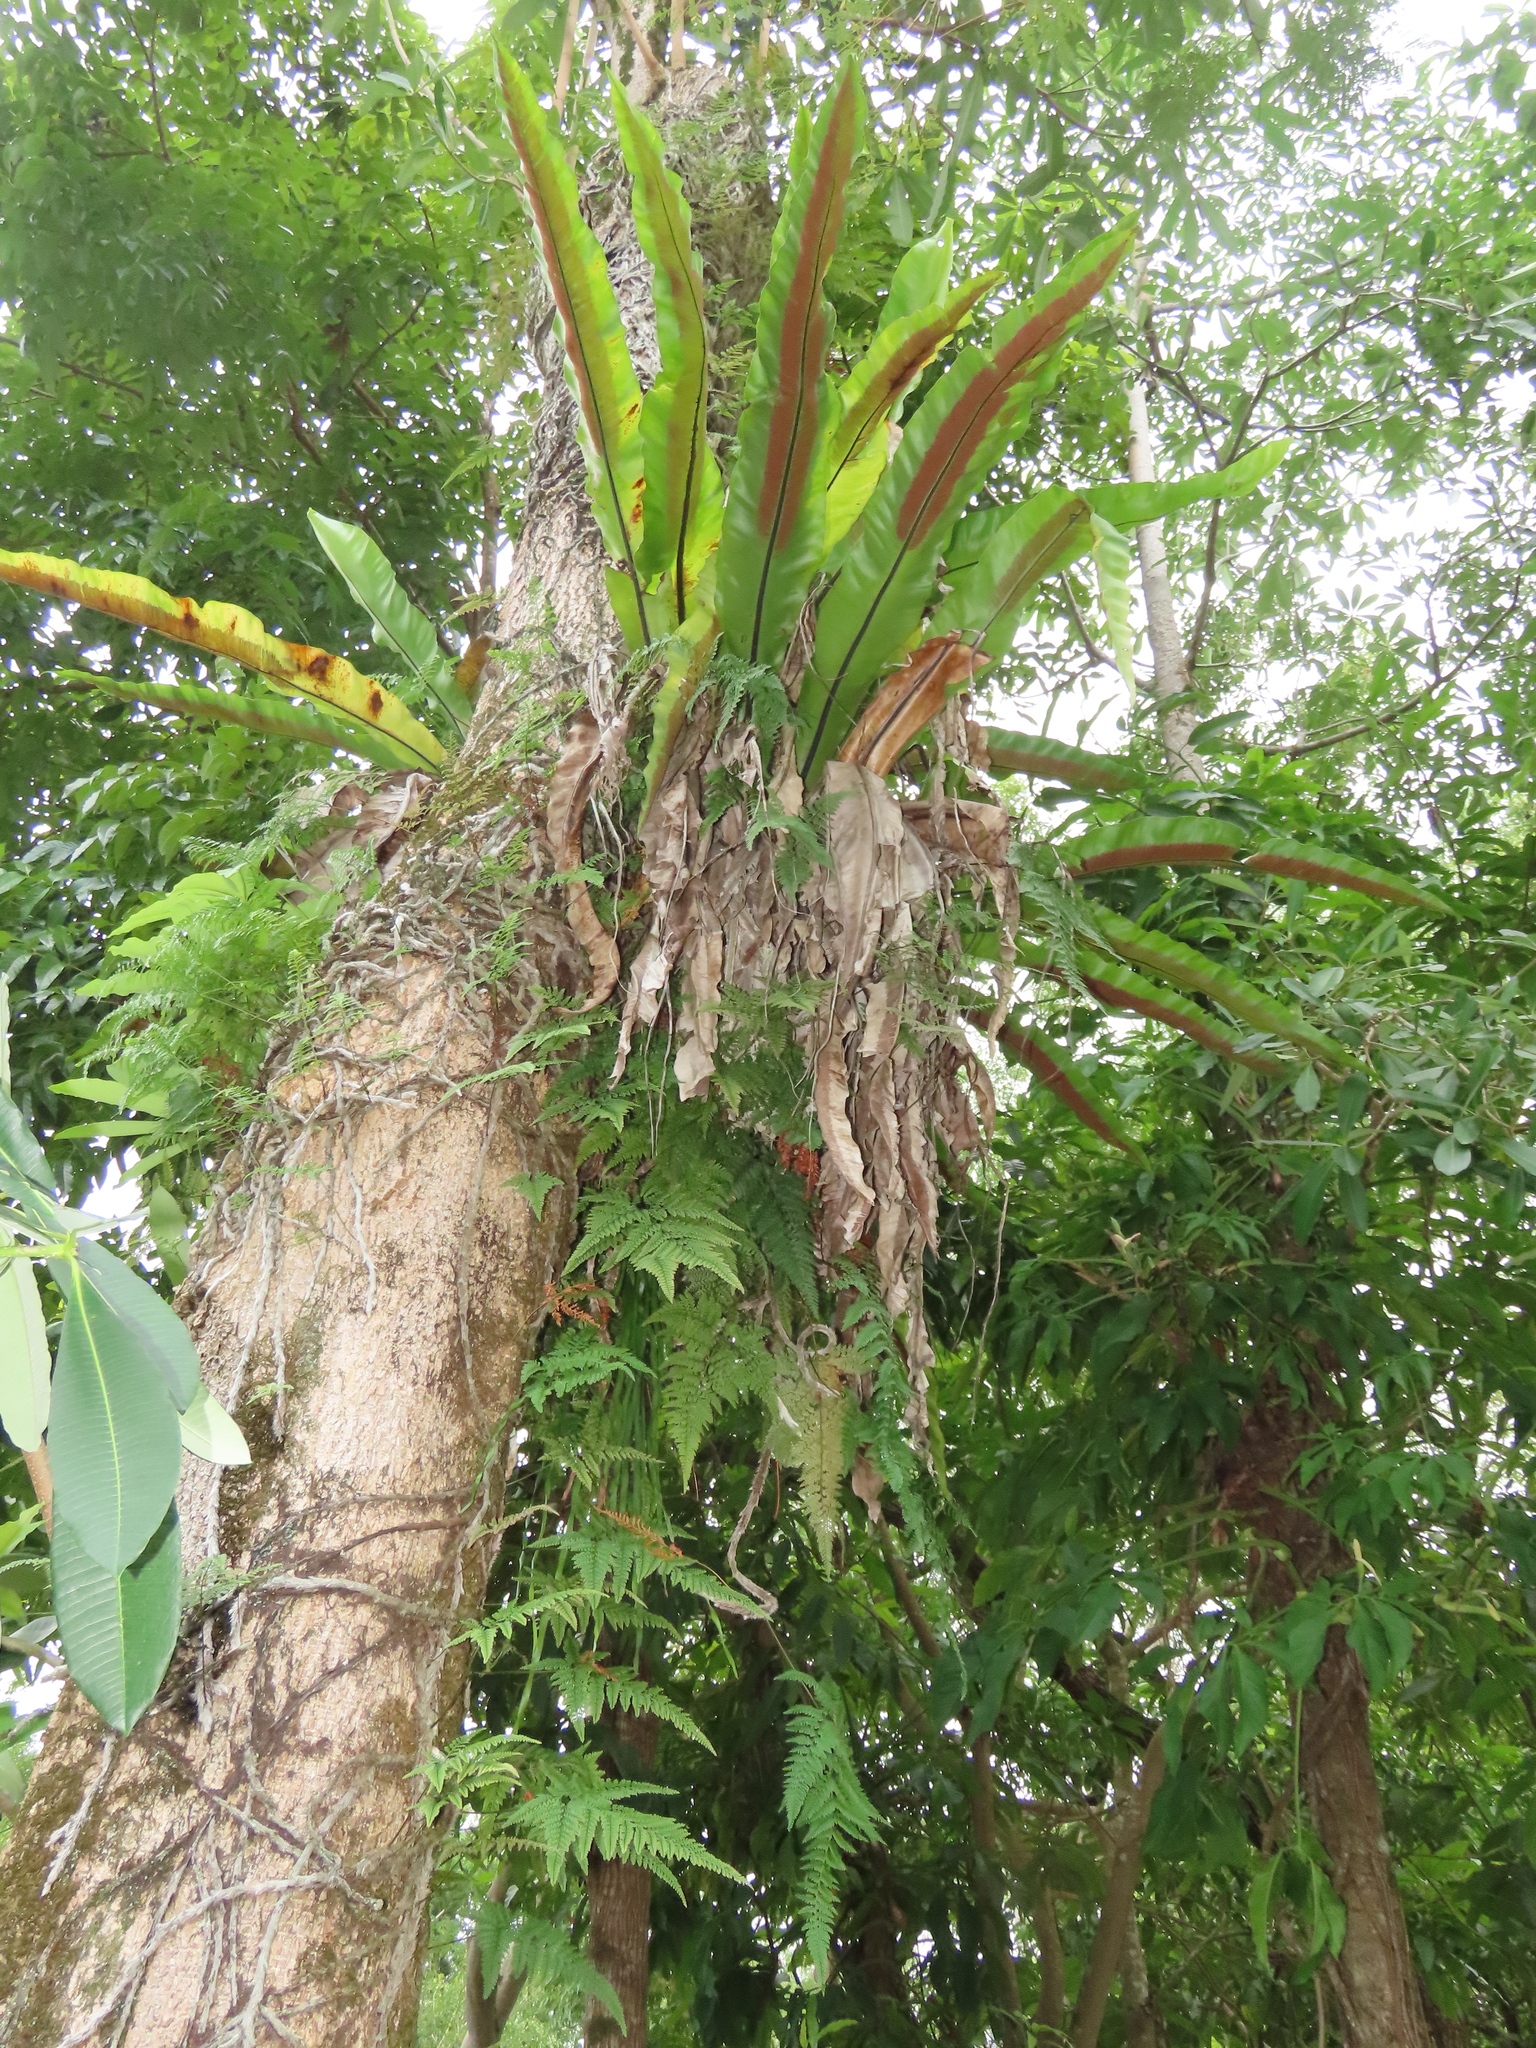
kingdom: Plantae
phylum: Tracheophyta
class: Polypodiopsida
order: Polypodiales
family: Aspleniaceae
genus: Asplenium
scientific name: Asplenium setoi
